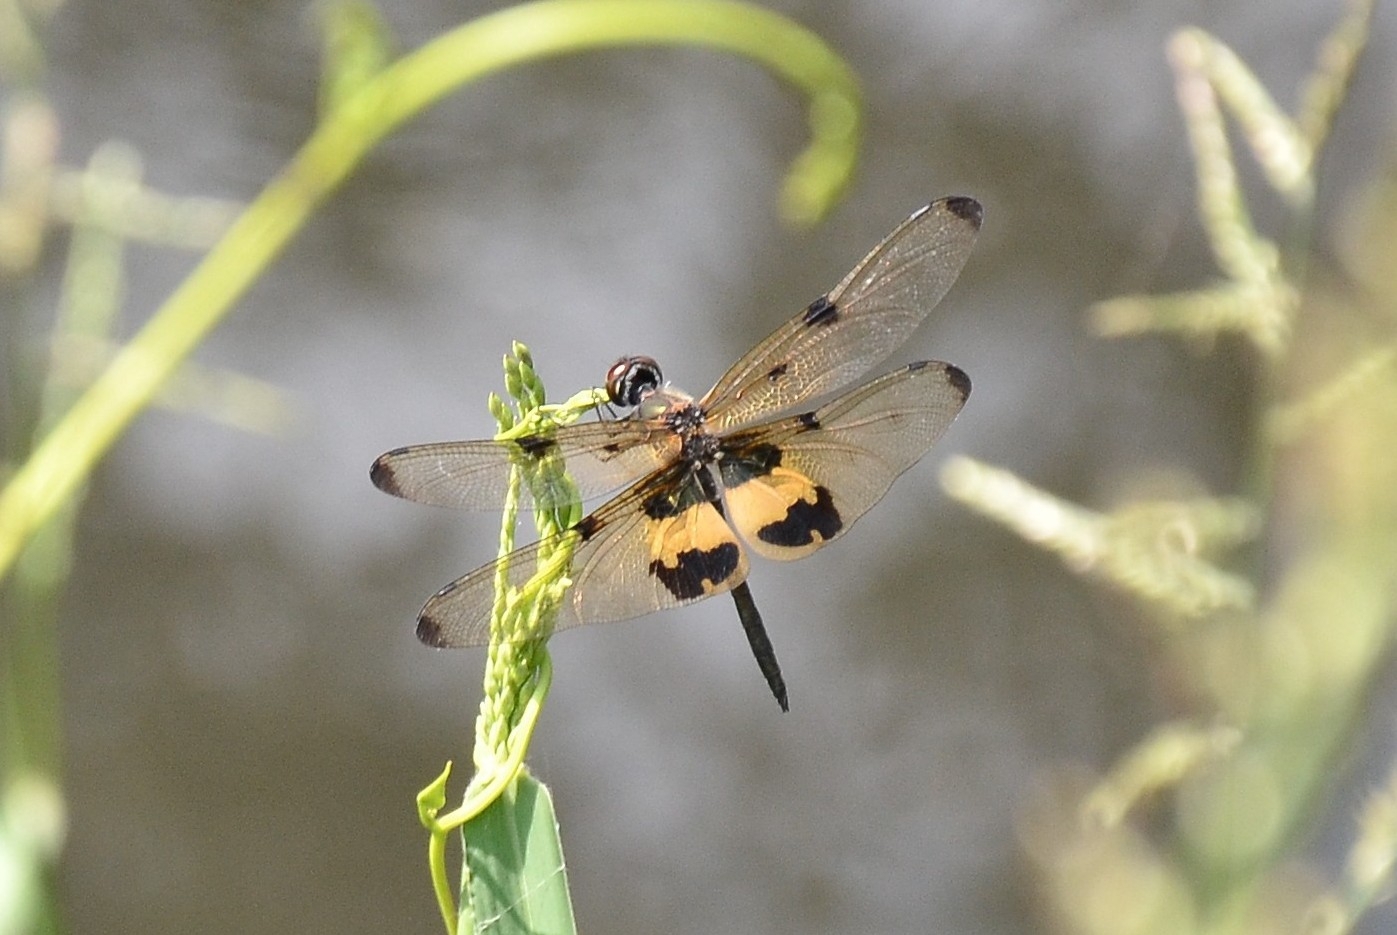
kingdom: Animalia
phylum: Arthropoda
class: Insecta
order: Odonata
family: Libellulidae
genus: Rhyothemis
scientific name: Rhyothemis variegata
